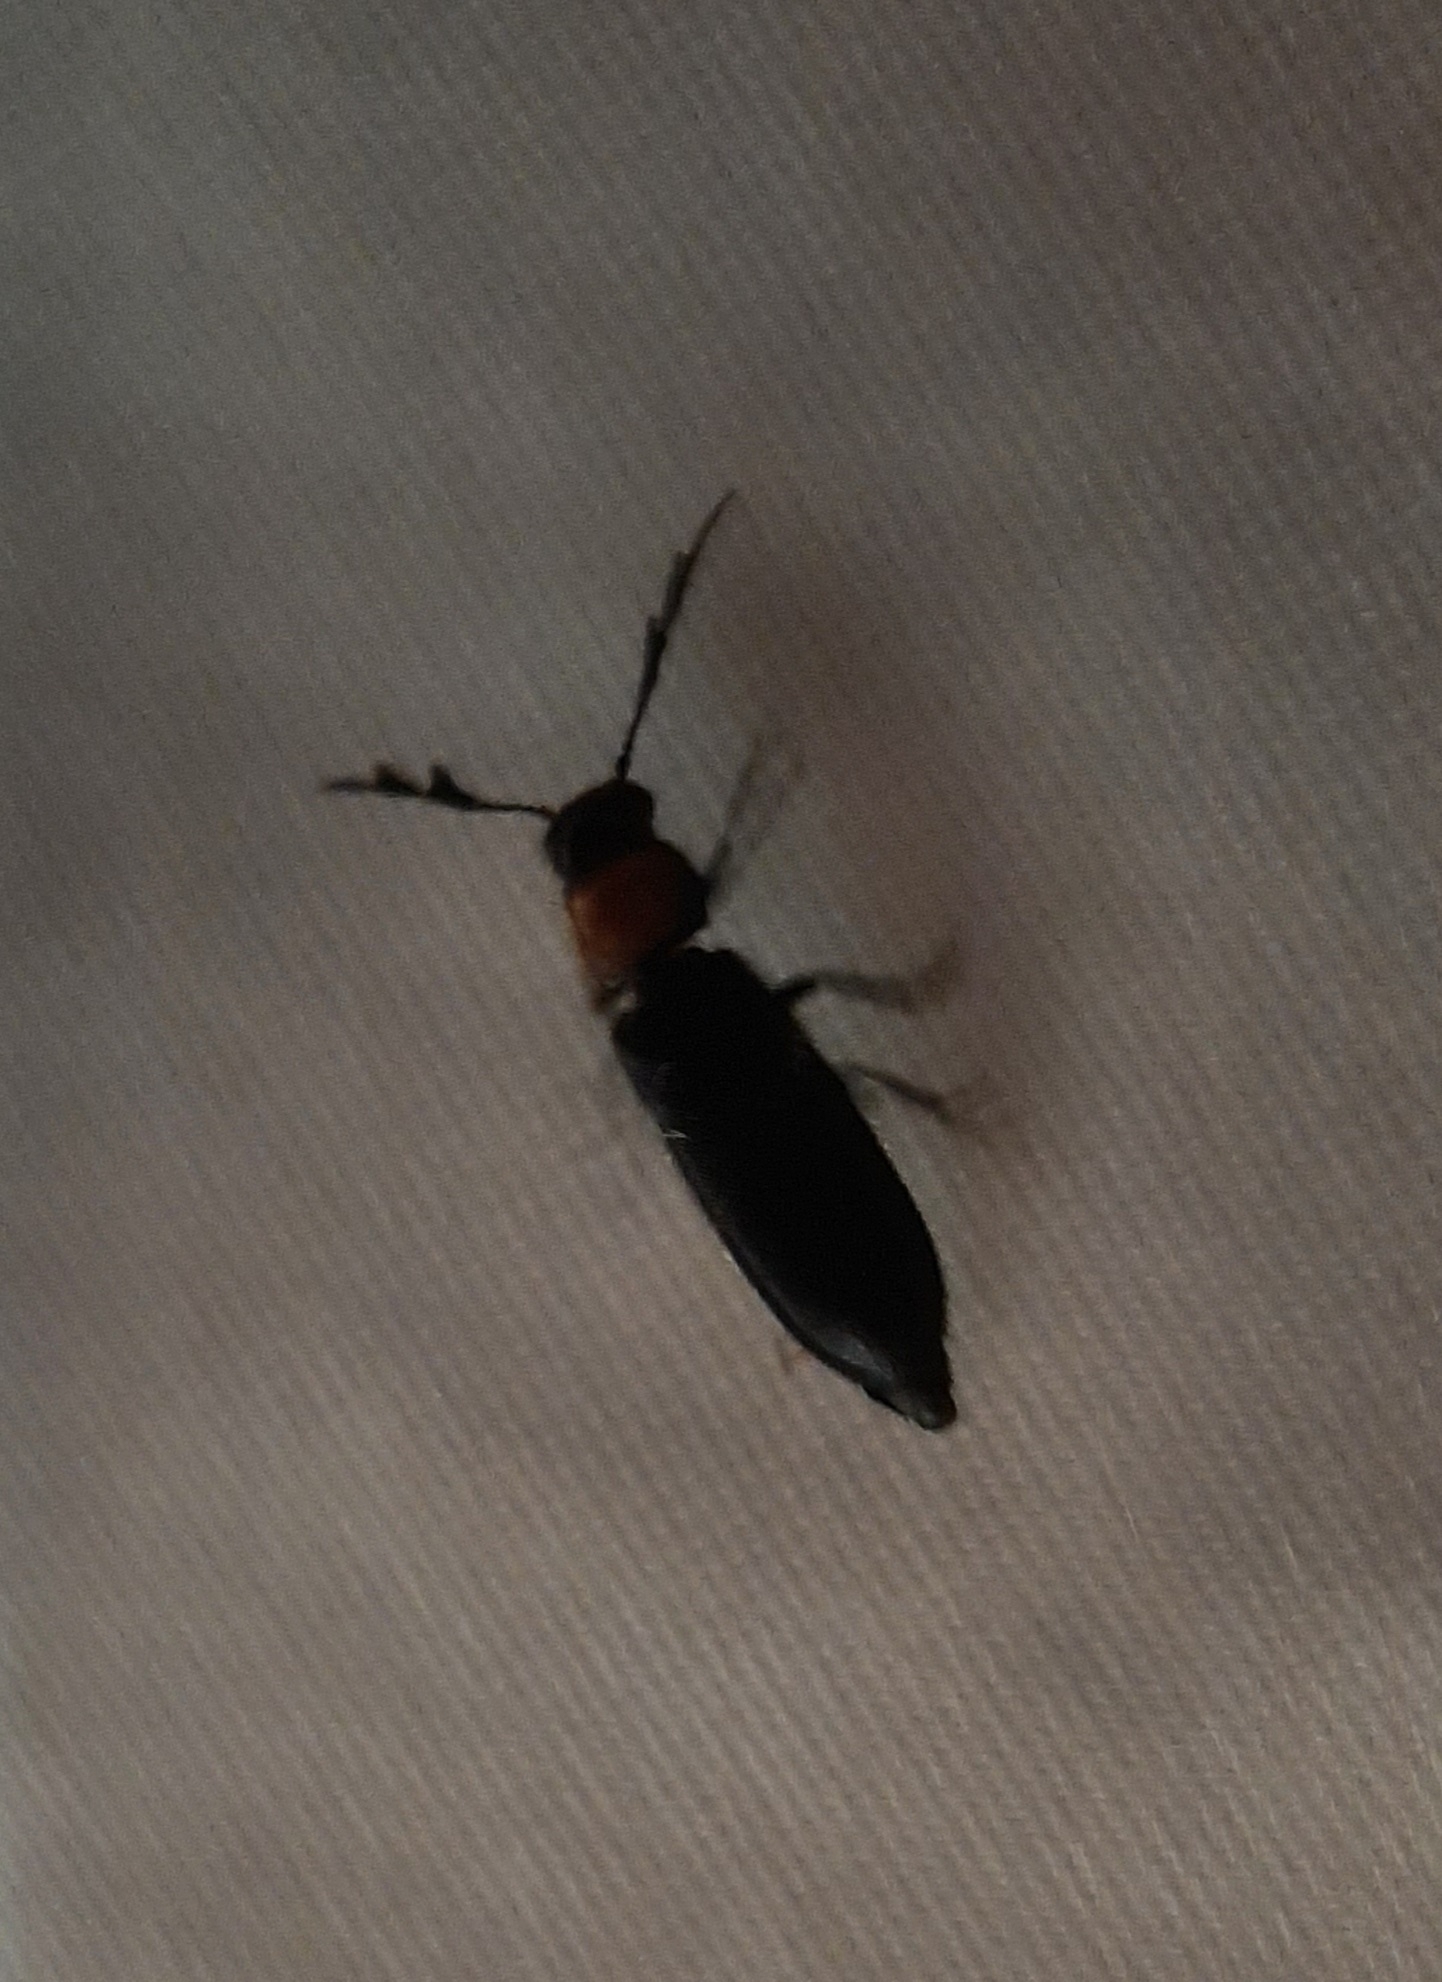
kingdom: Animalia
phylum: Arthropoda
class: Insecta
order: Coleoptera
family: Cleridae
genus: Neorthopleura
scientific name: Neorthopleura thoracica
